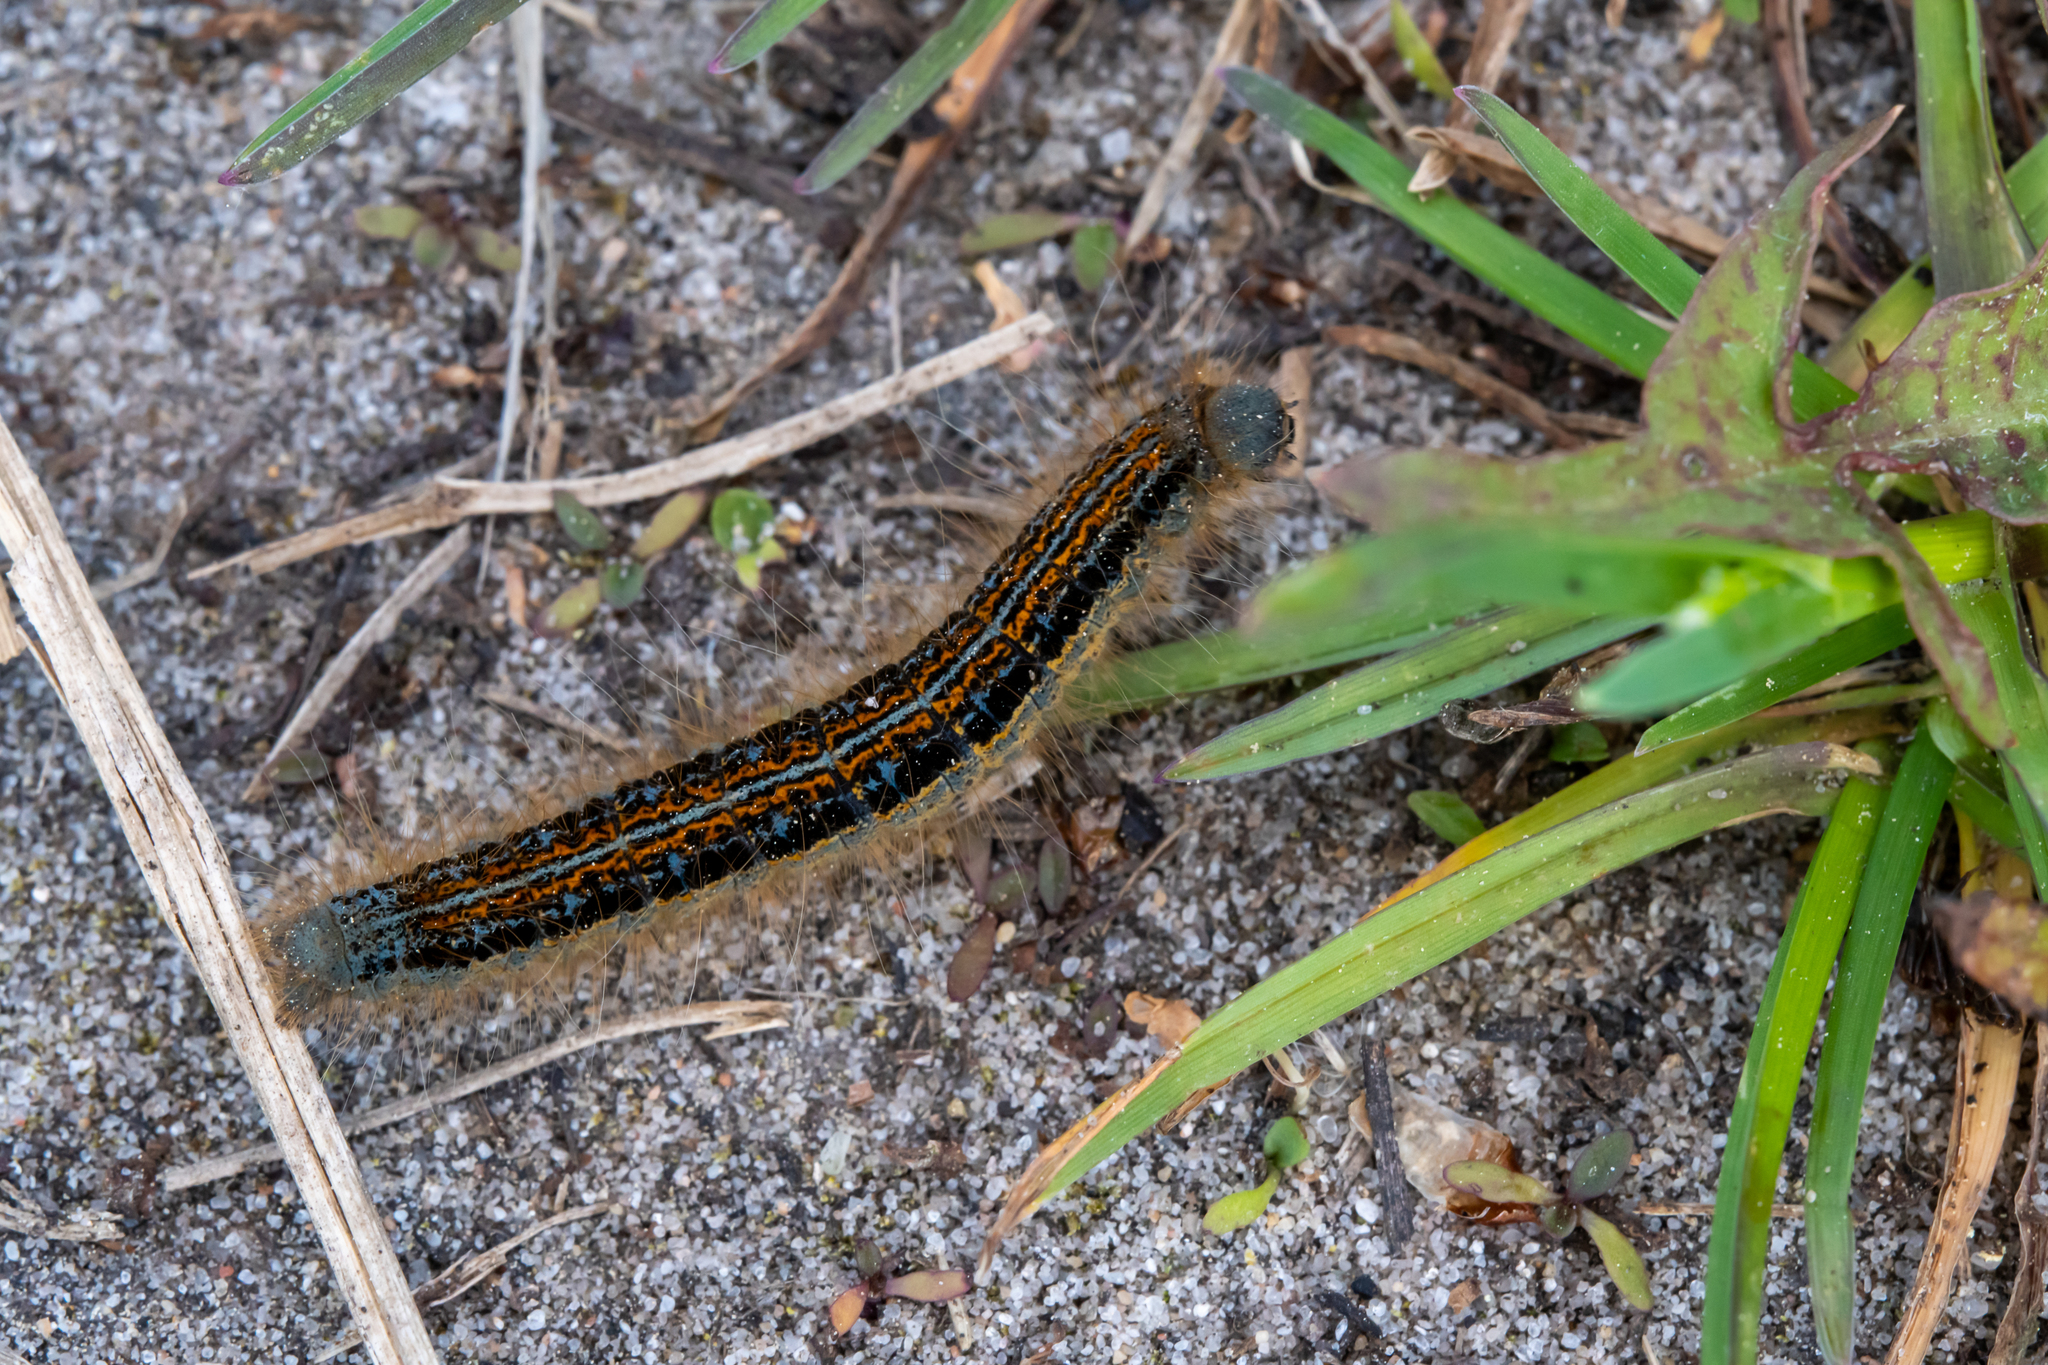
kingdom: Animalia
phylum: Arthropoda
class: Insecta
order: Lepidoptera
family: Lasiocampidae
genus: Malacosoma
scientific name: Malacosoma castrense
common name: Ground lackey
